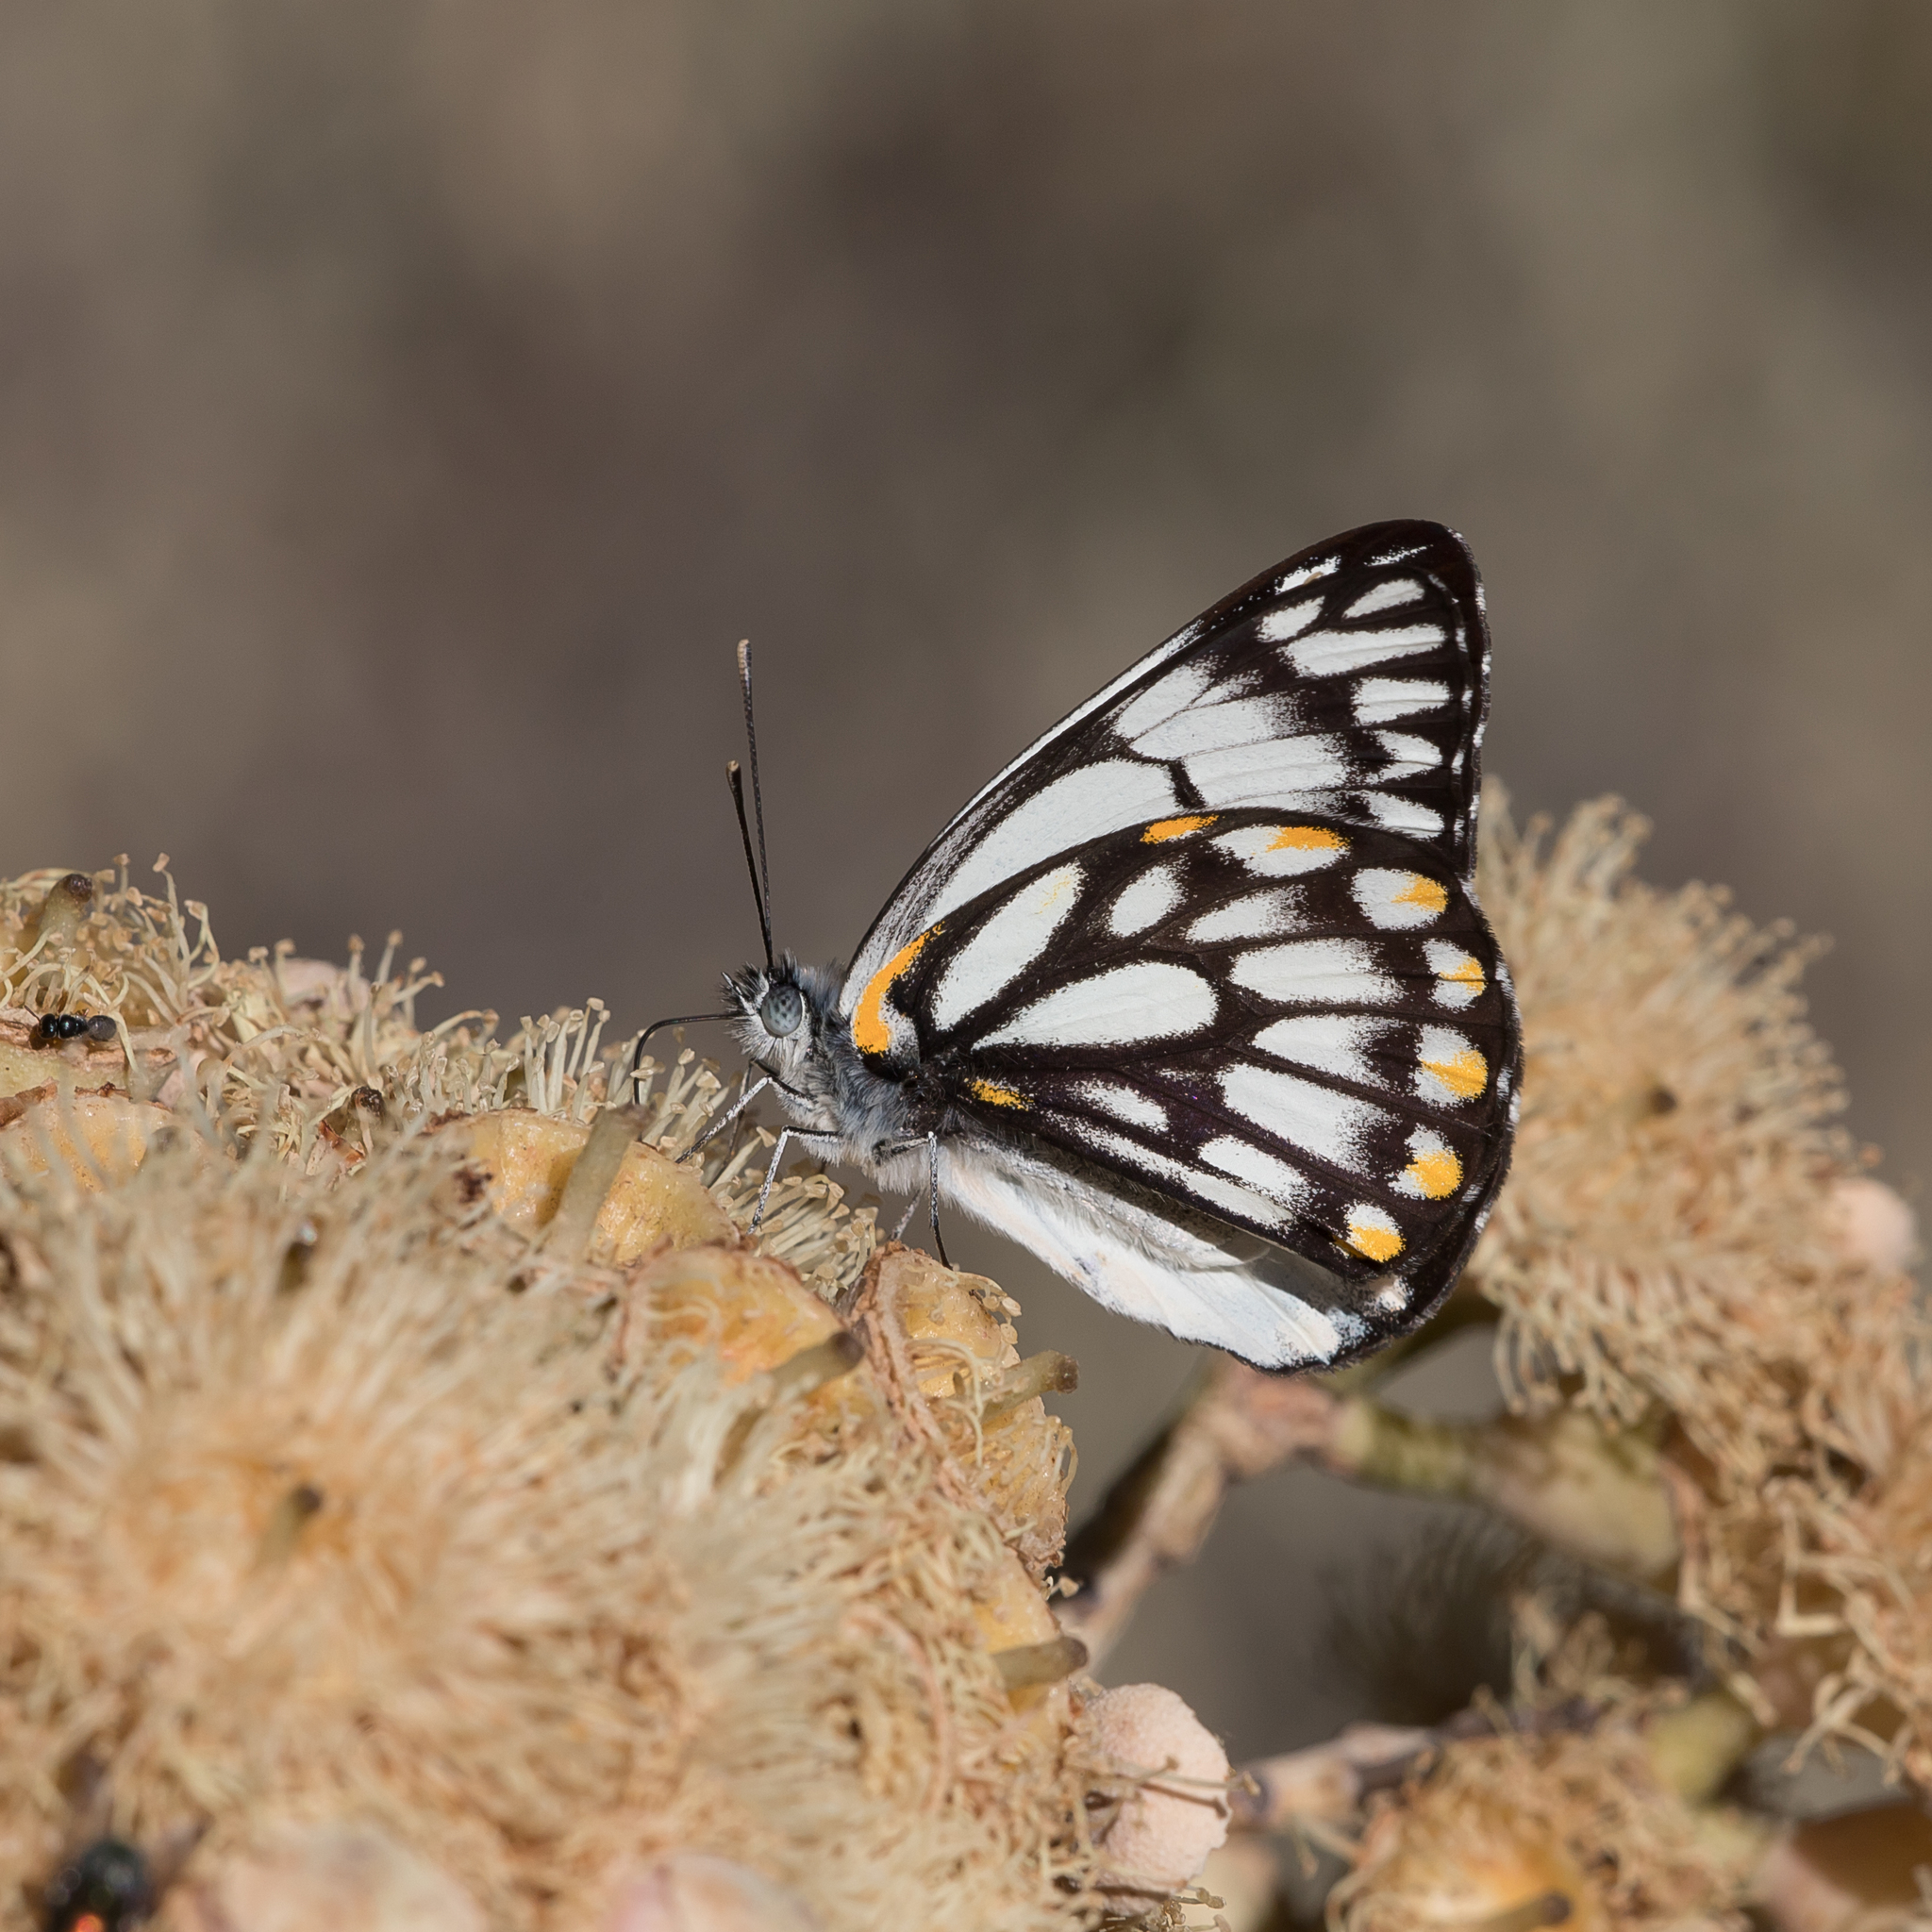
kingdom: Animalia
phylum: Arthropoda
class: Insecta
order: Lepidoptera
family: Pieridae
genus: Belenois
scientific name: Belenois java
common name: Caper white
